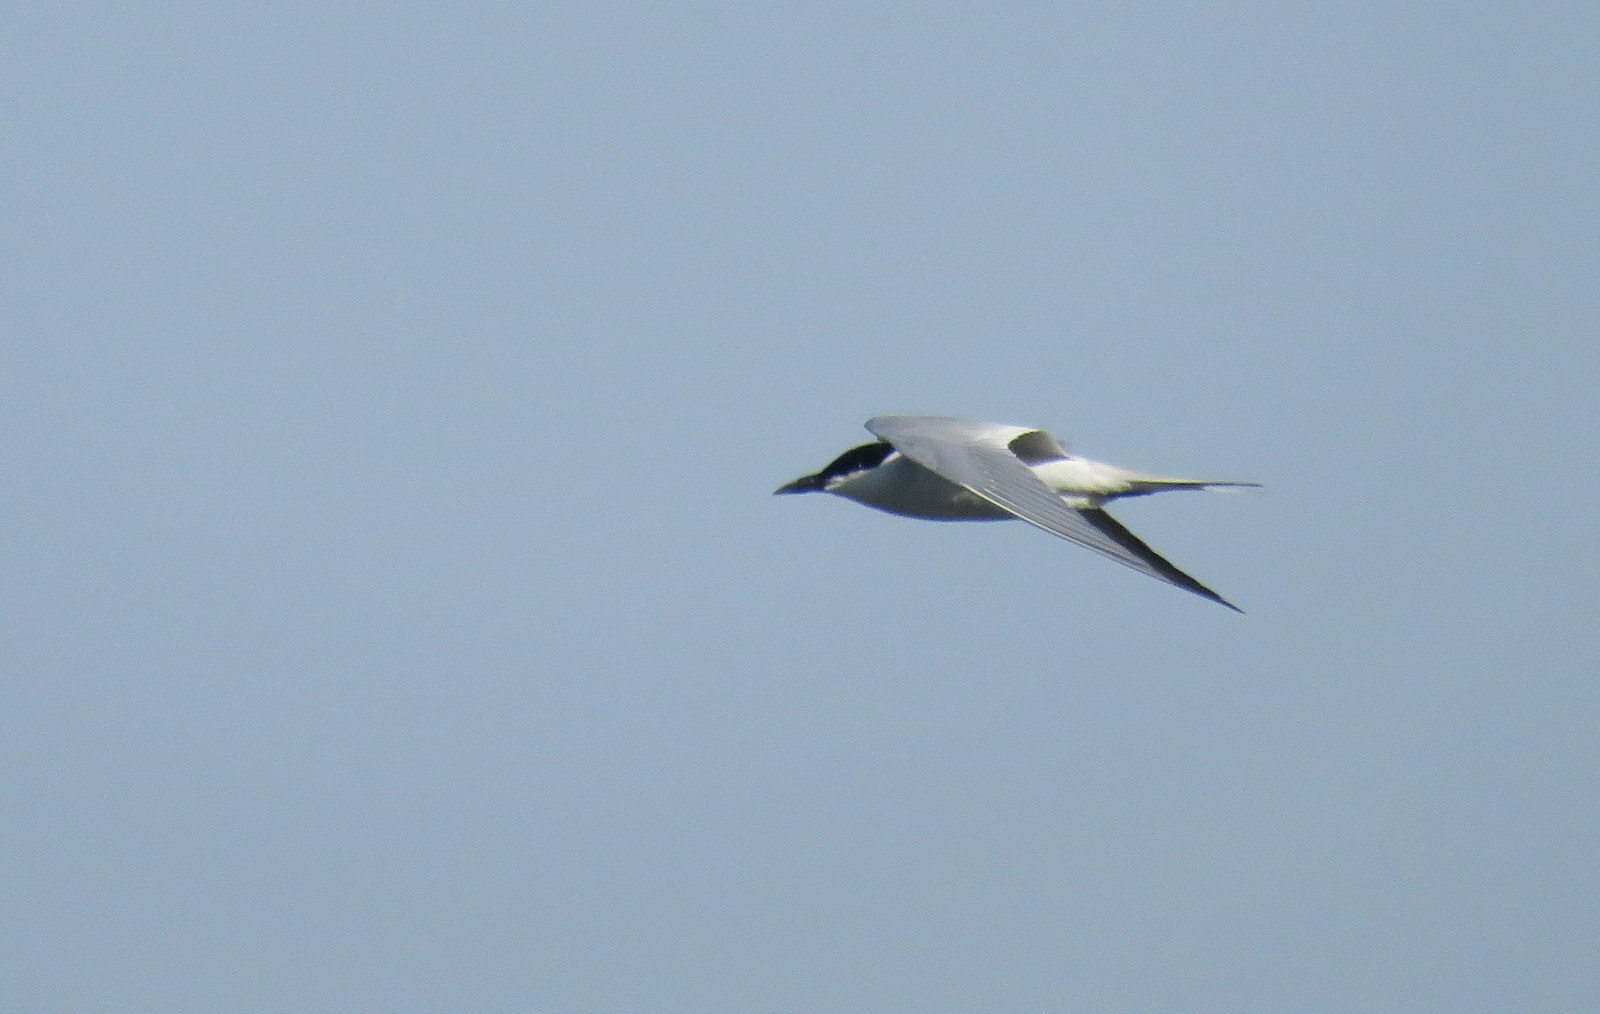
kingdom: Animalia
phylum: Chordata
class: Aves
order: Charadriiformes
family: Laridae
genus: Gelochelidon
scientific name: Gelochelidon nilotica
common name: Gull-billed tern
